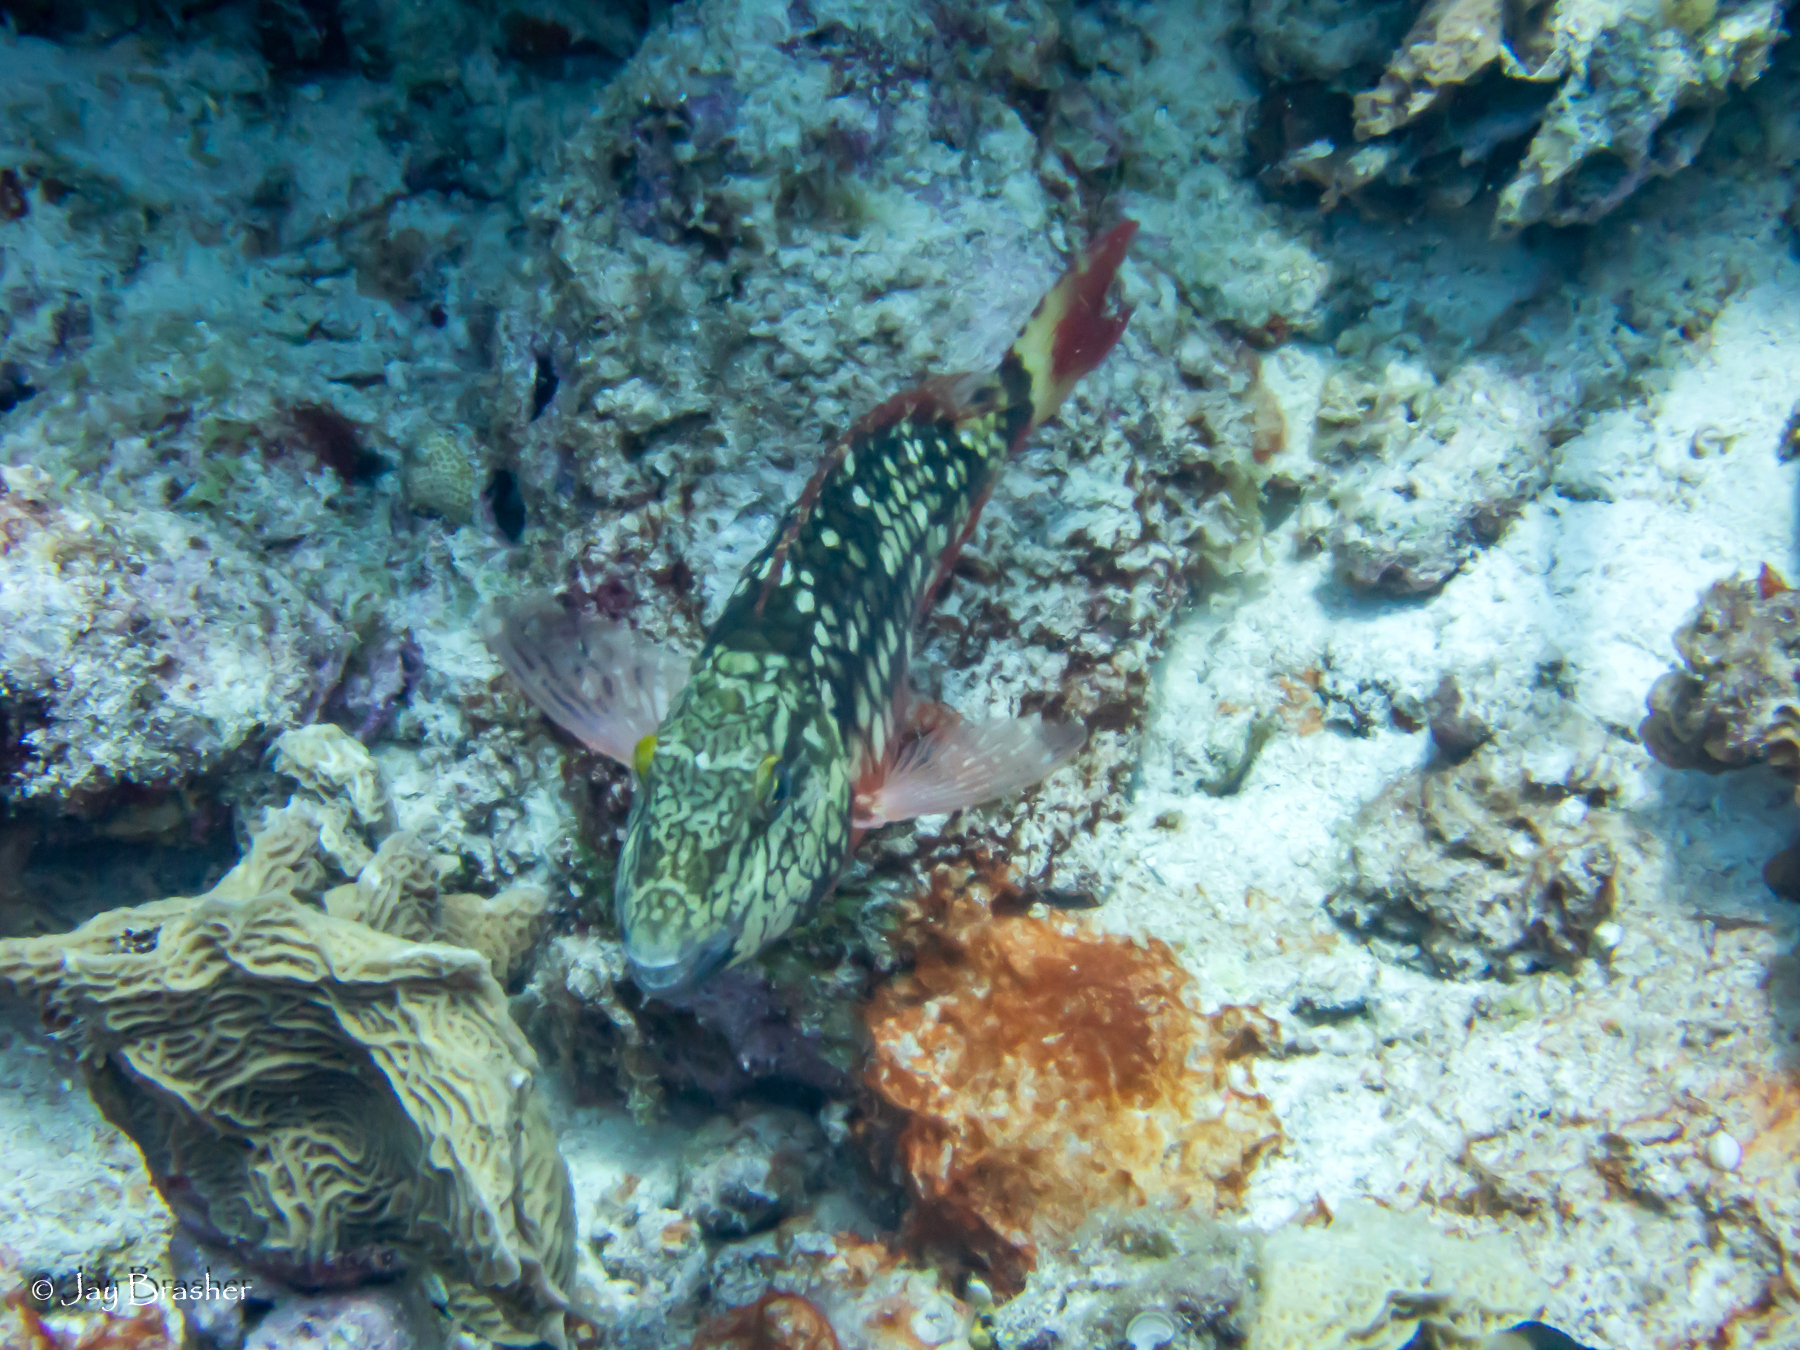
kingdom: Animalia
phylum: Chordata
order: Perciformes
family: Scaridae
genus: Sparisoma
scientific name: Sparisoma viride
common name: Stoplight parrotfish
